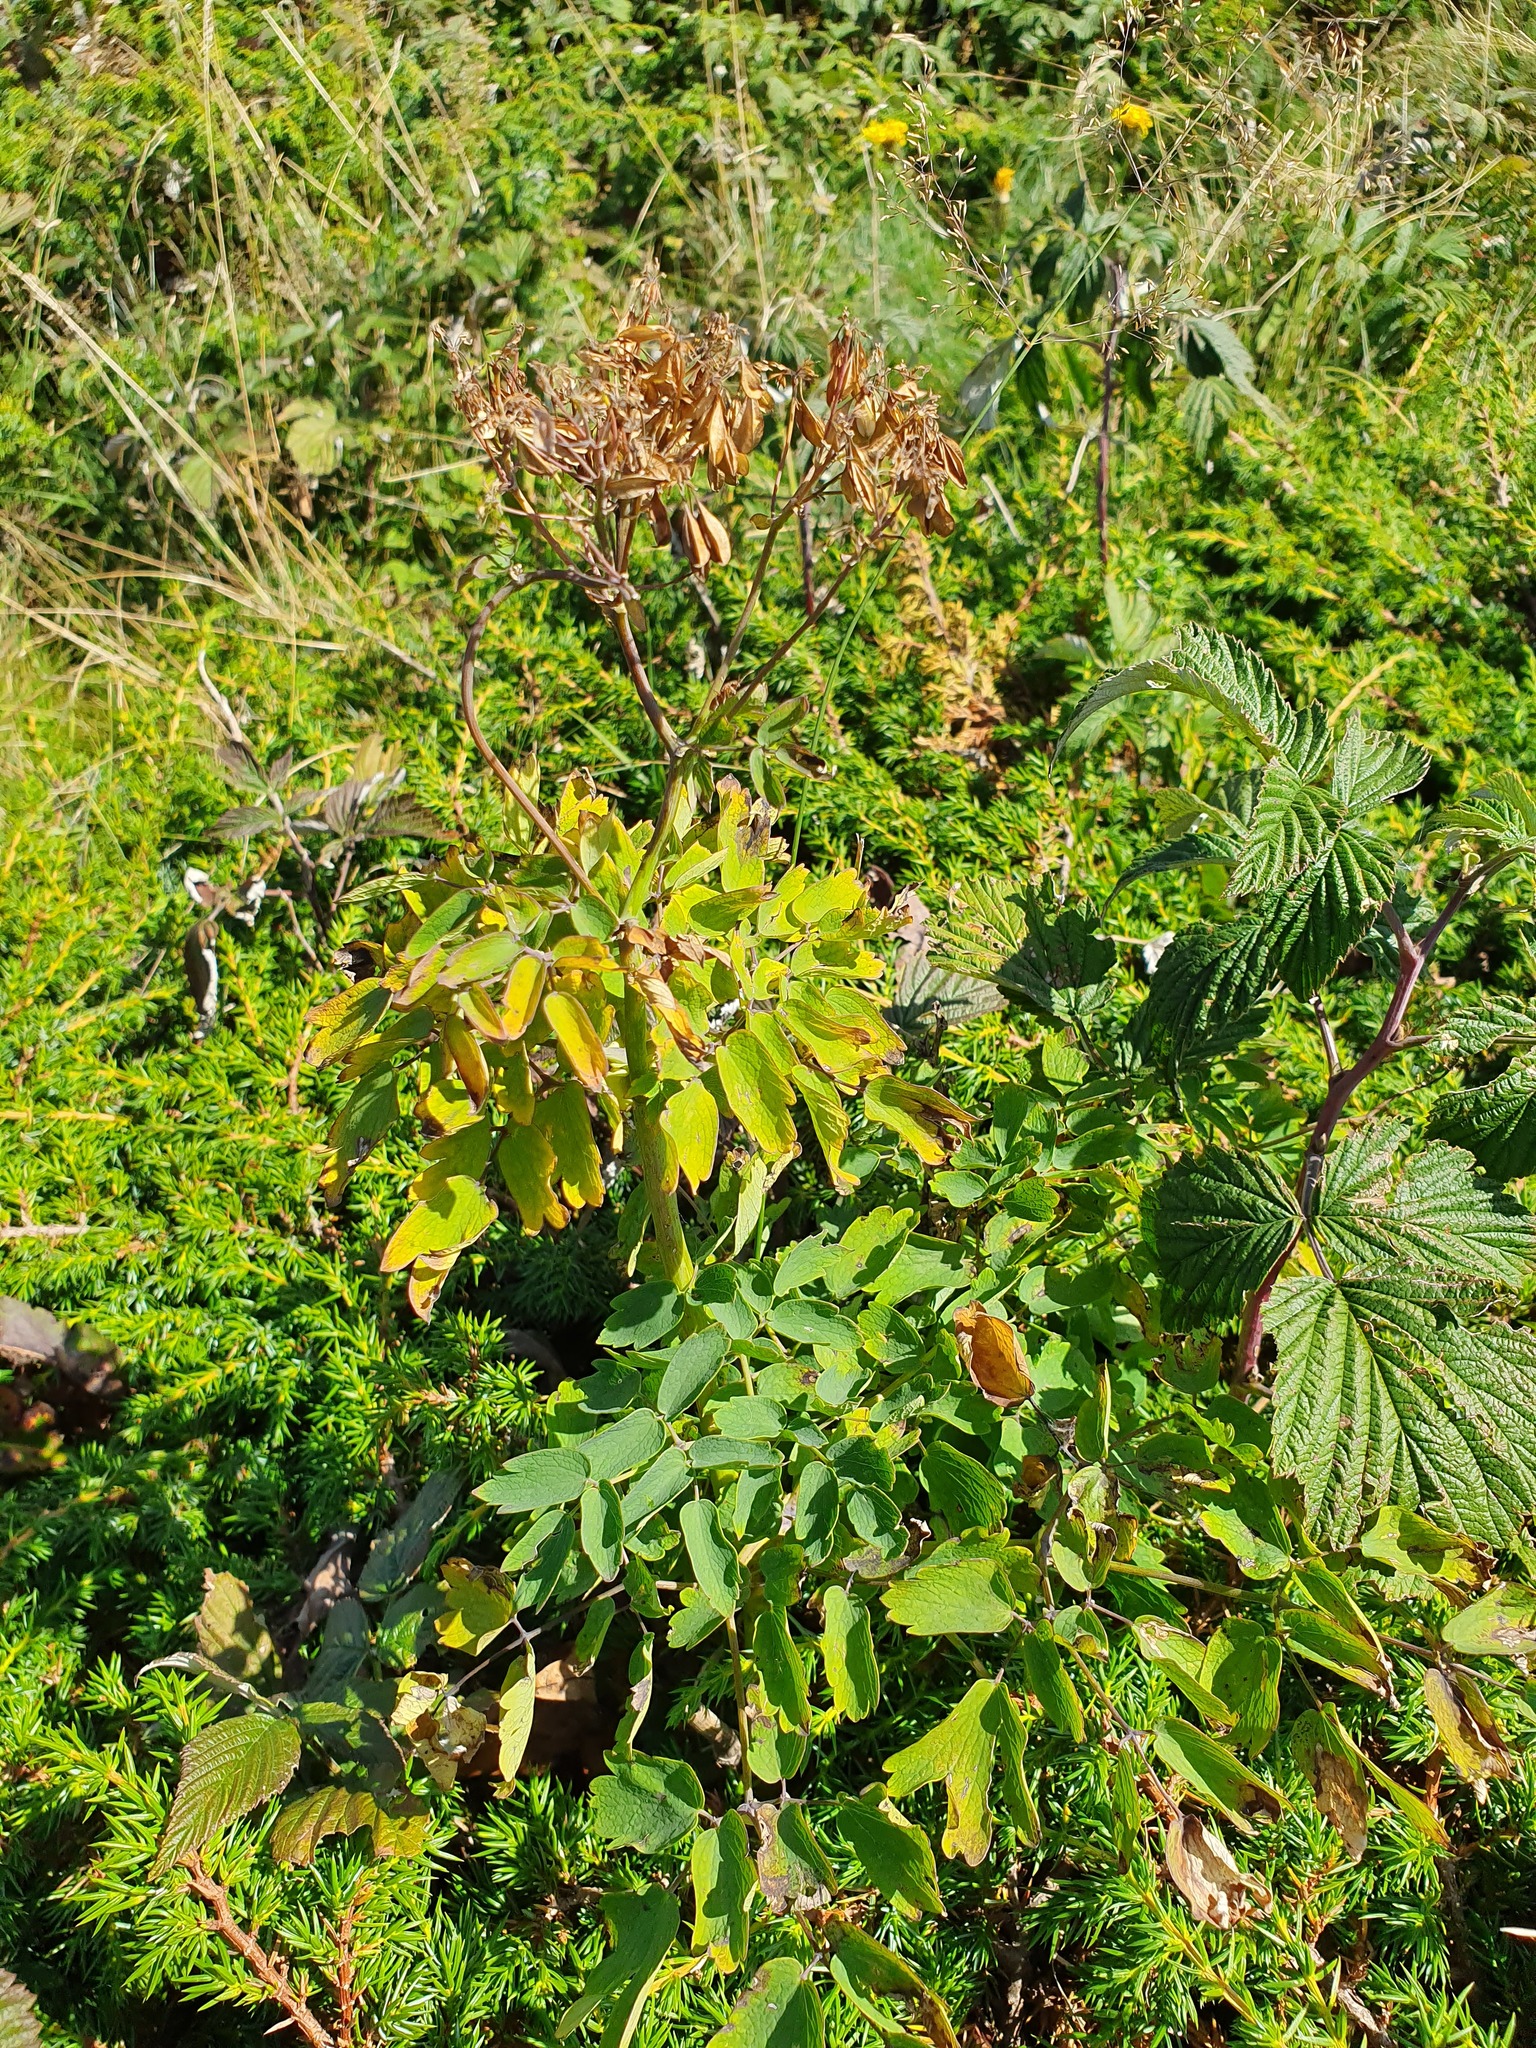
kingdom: Plantae
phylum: Tracheophyta
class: Magnoliopsida
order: Ranunculales
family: Ranunculaceae
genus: Thalictrum
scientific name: Thalictrum aquilegiifolium
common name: French meadow-rue
